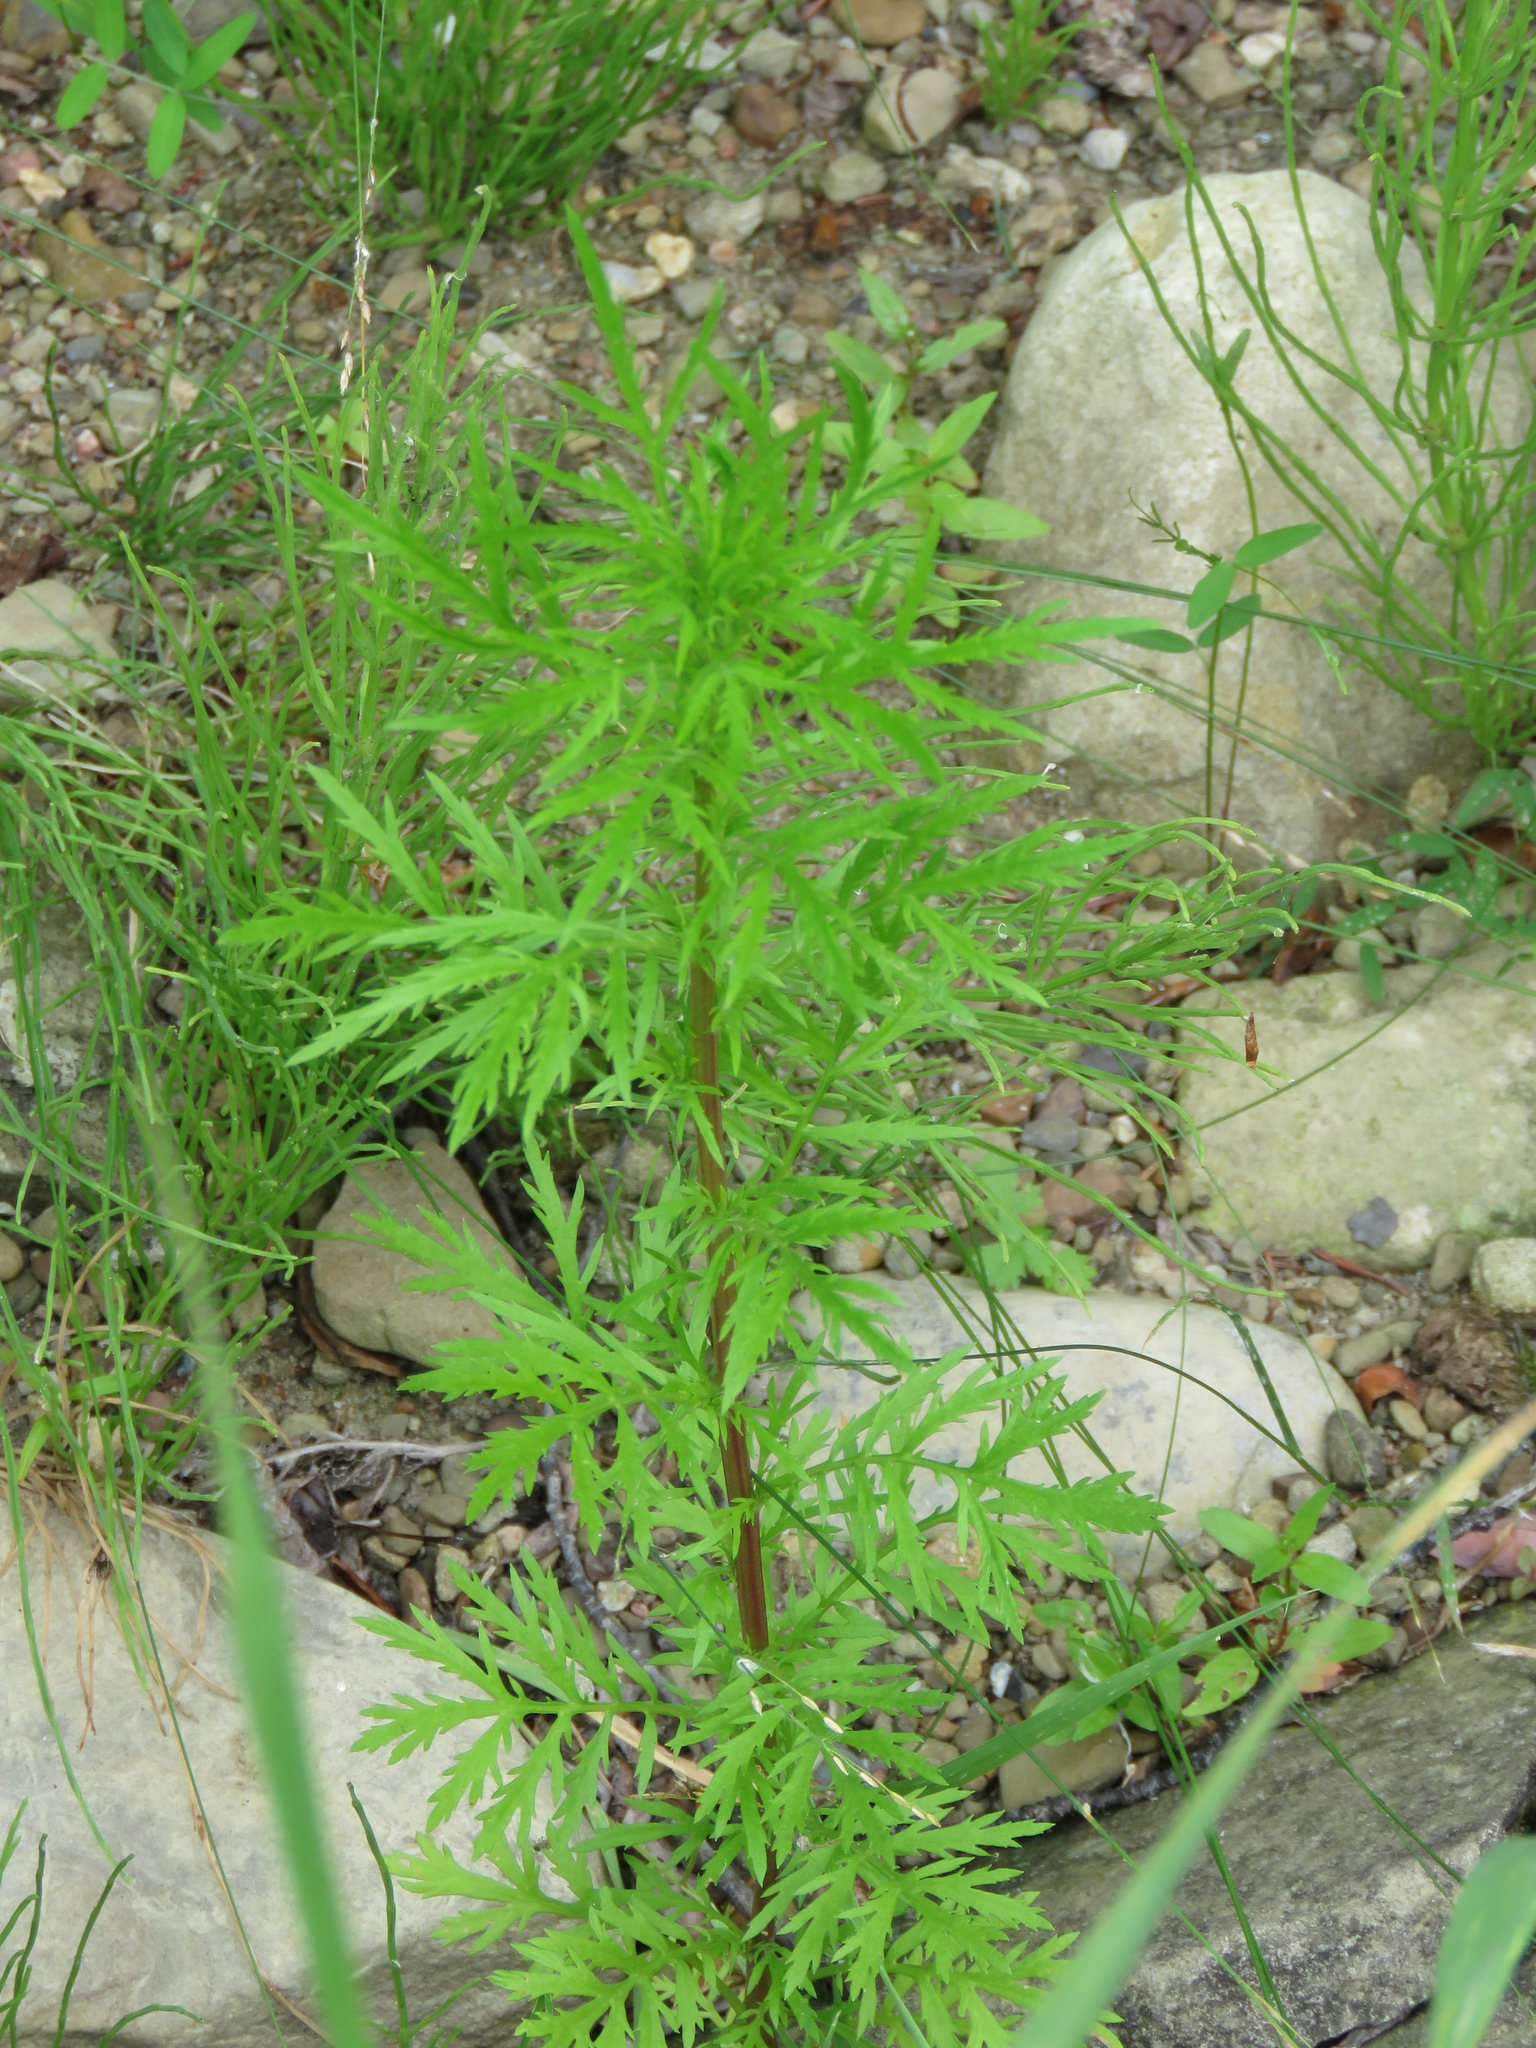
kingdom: Plantae
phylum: Tracheophyta
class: Magnoliopsida
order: Asterales
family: Asteraceae
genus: Artemisia
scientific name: Artemisia biennis
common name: Biennial wormwood
